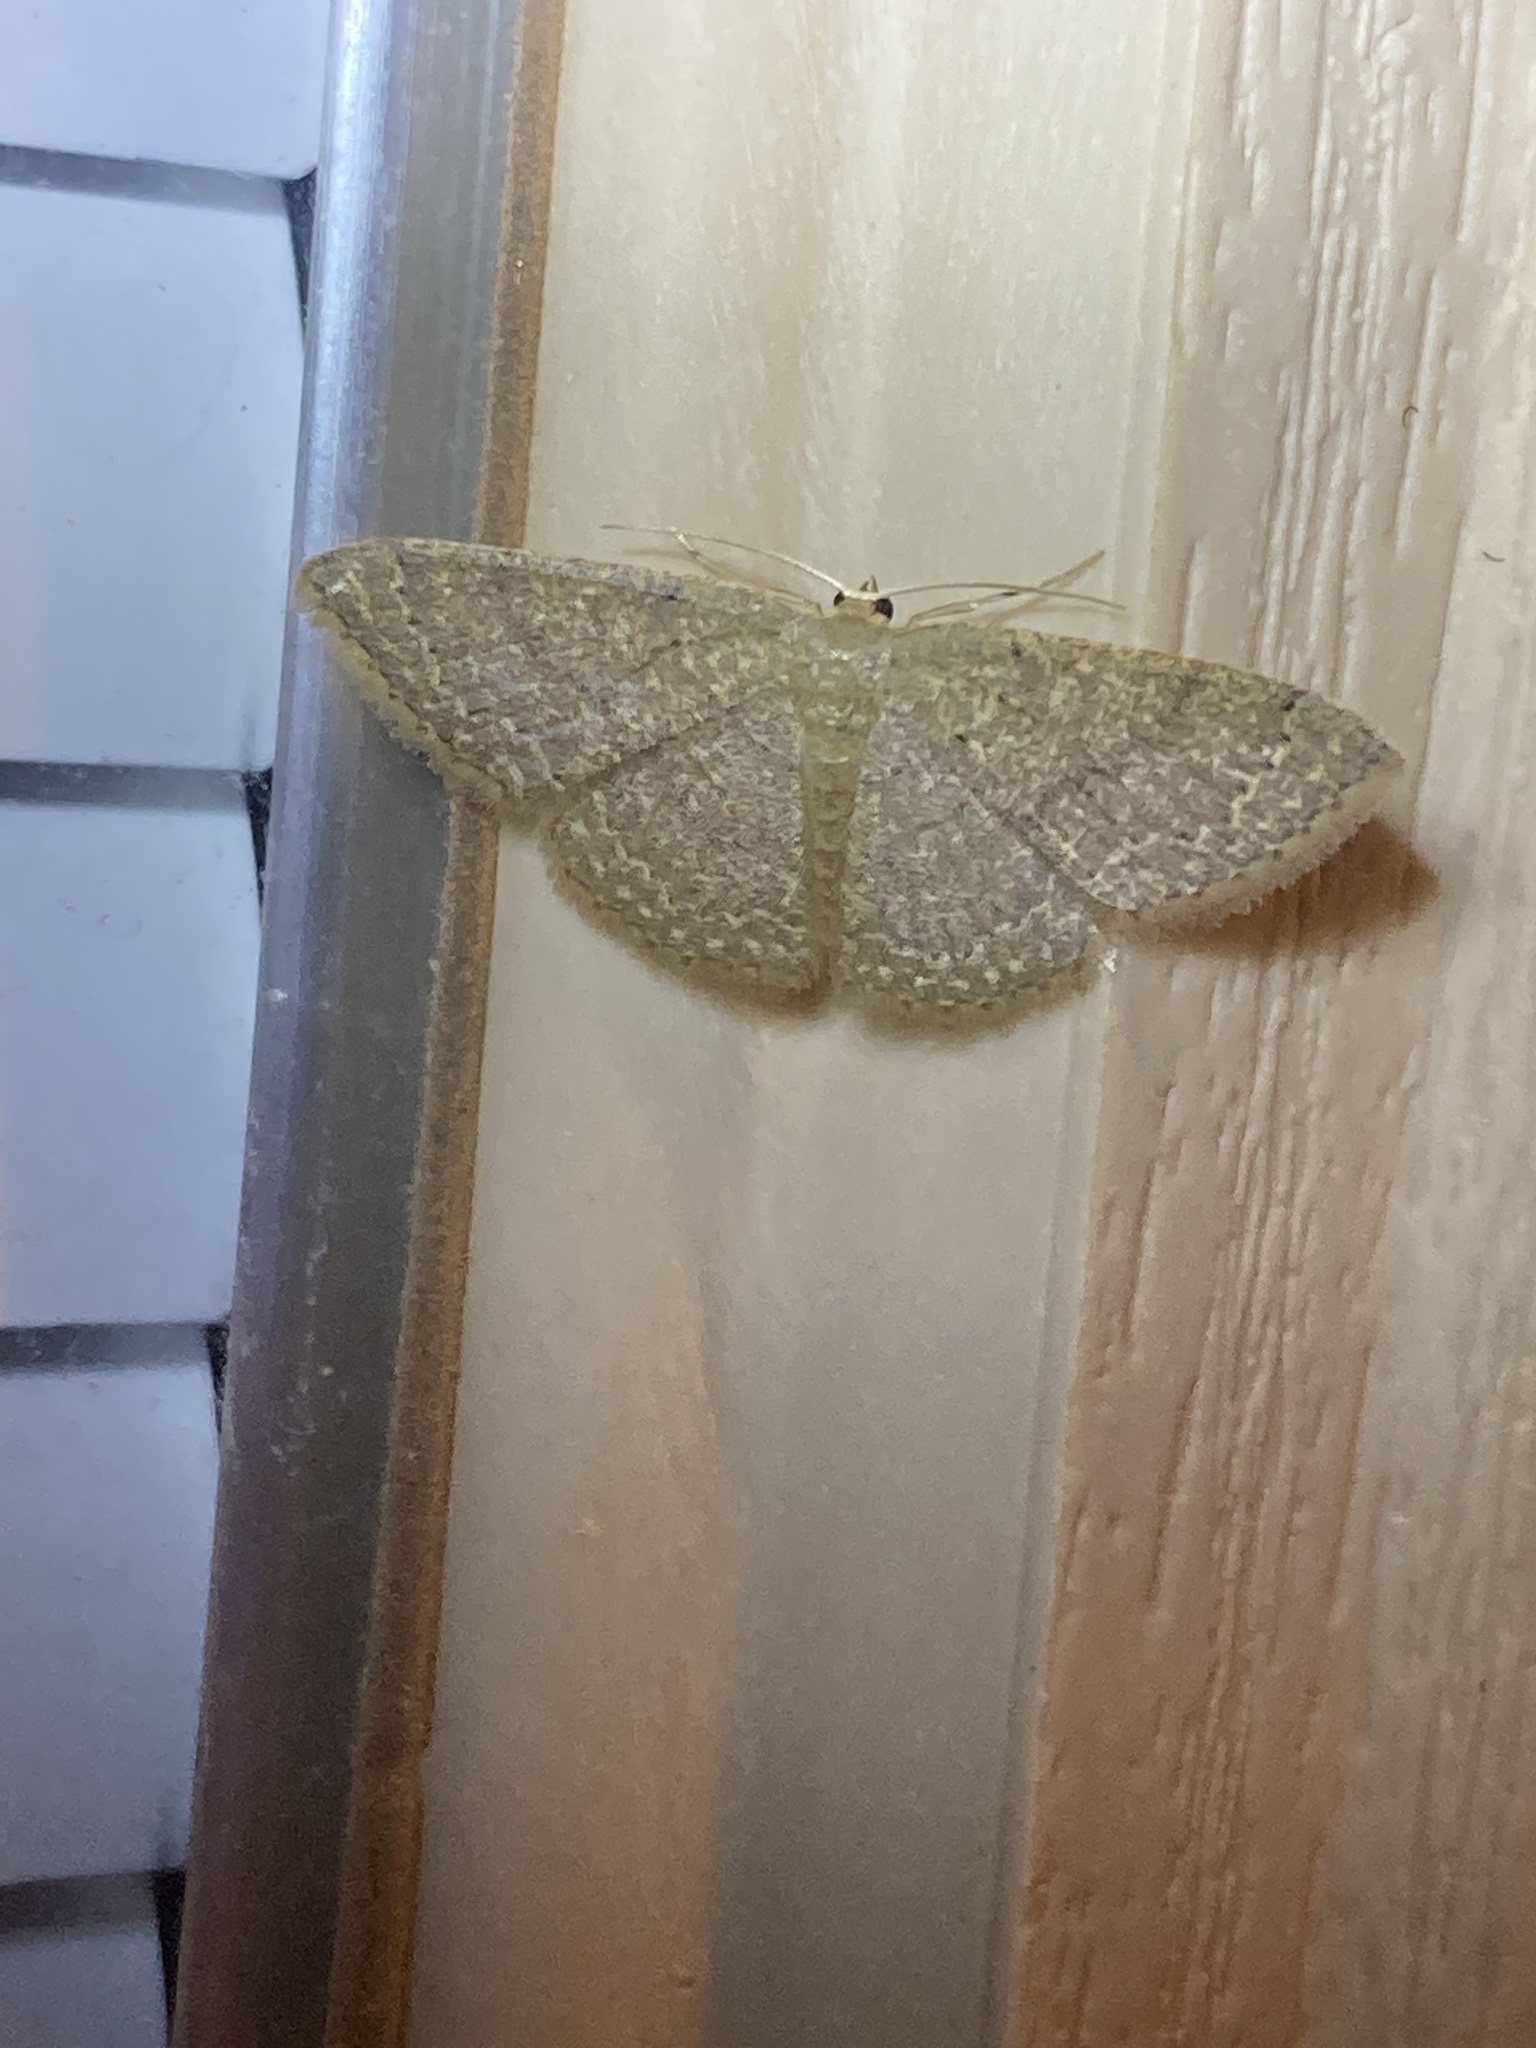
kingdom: Animalia
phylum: Arthropoda
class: Insecta
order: Lepidoptera
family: Geometridae
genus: Pleuroprucha
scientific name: Pleuroprucha insulsaria
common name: Common tan wave
